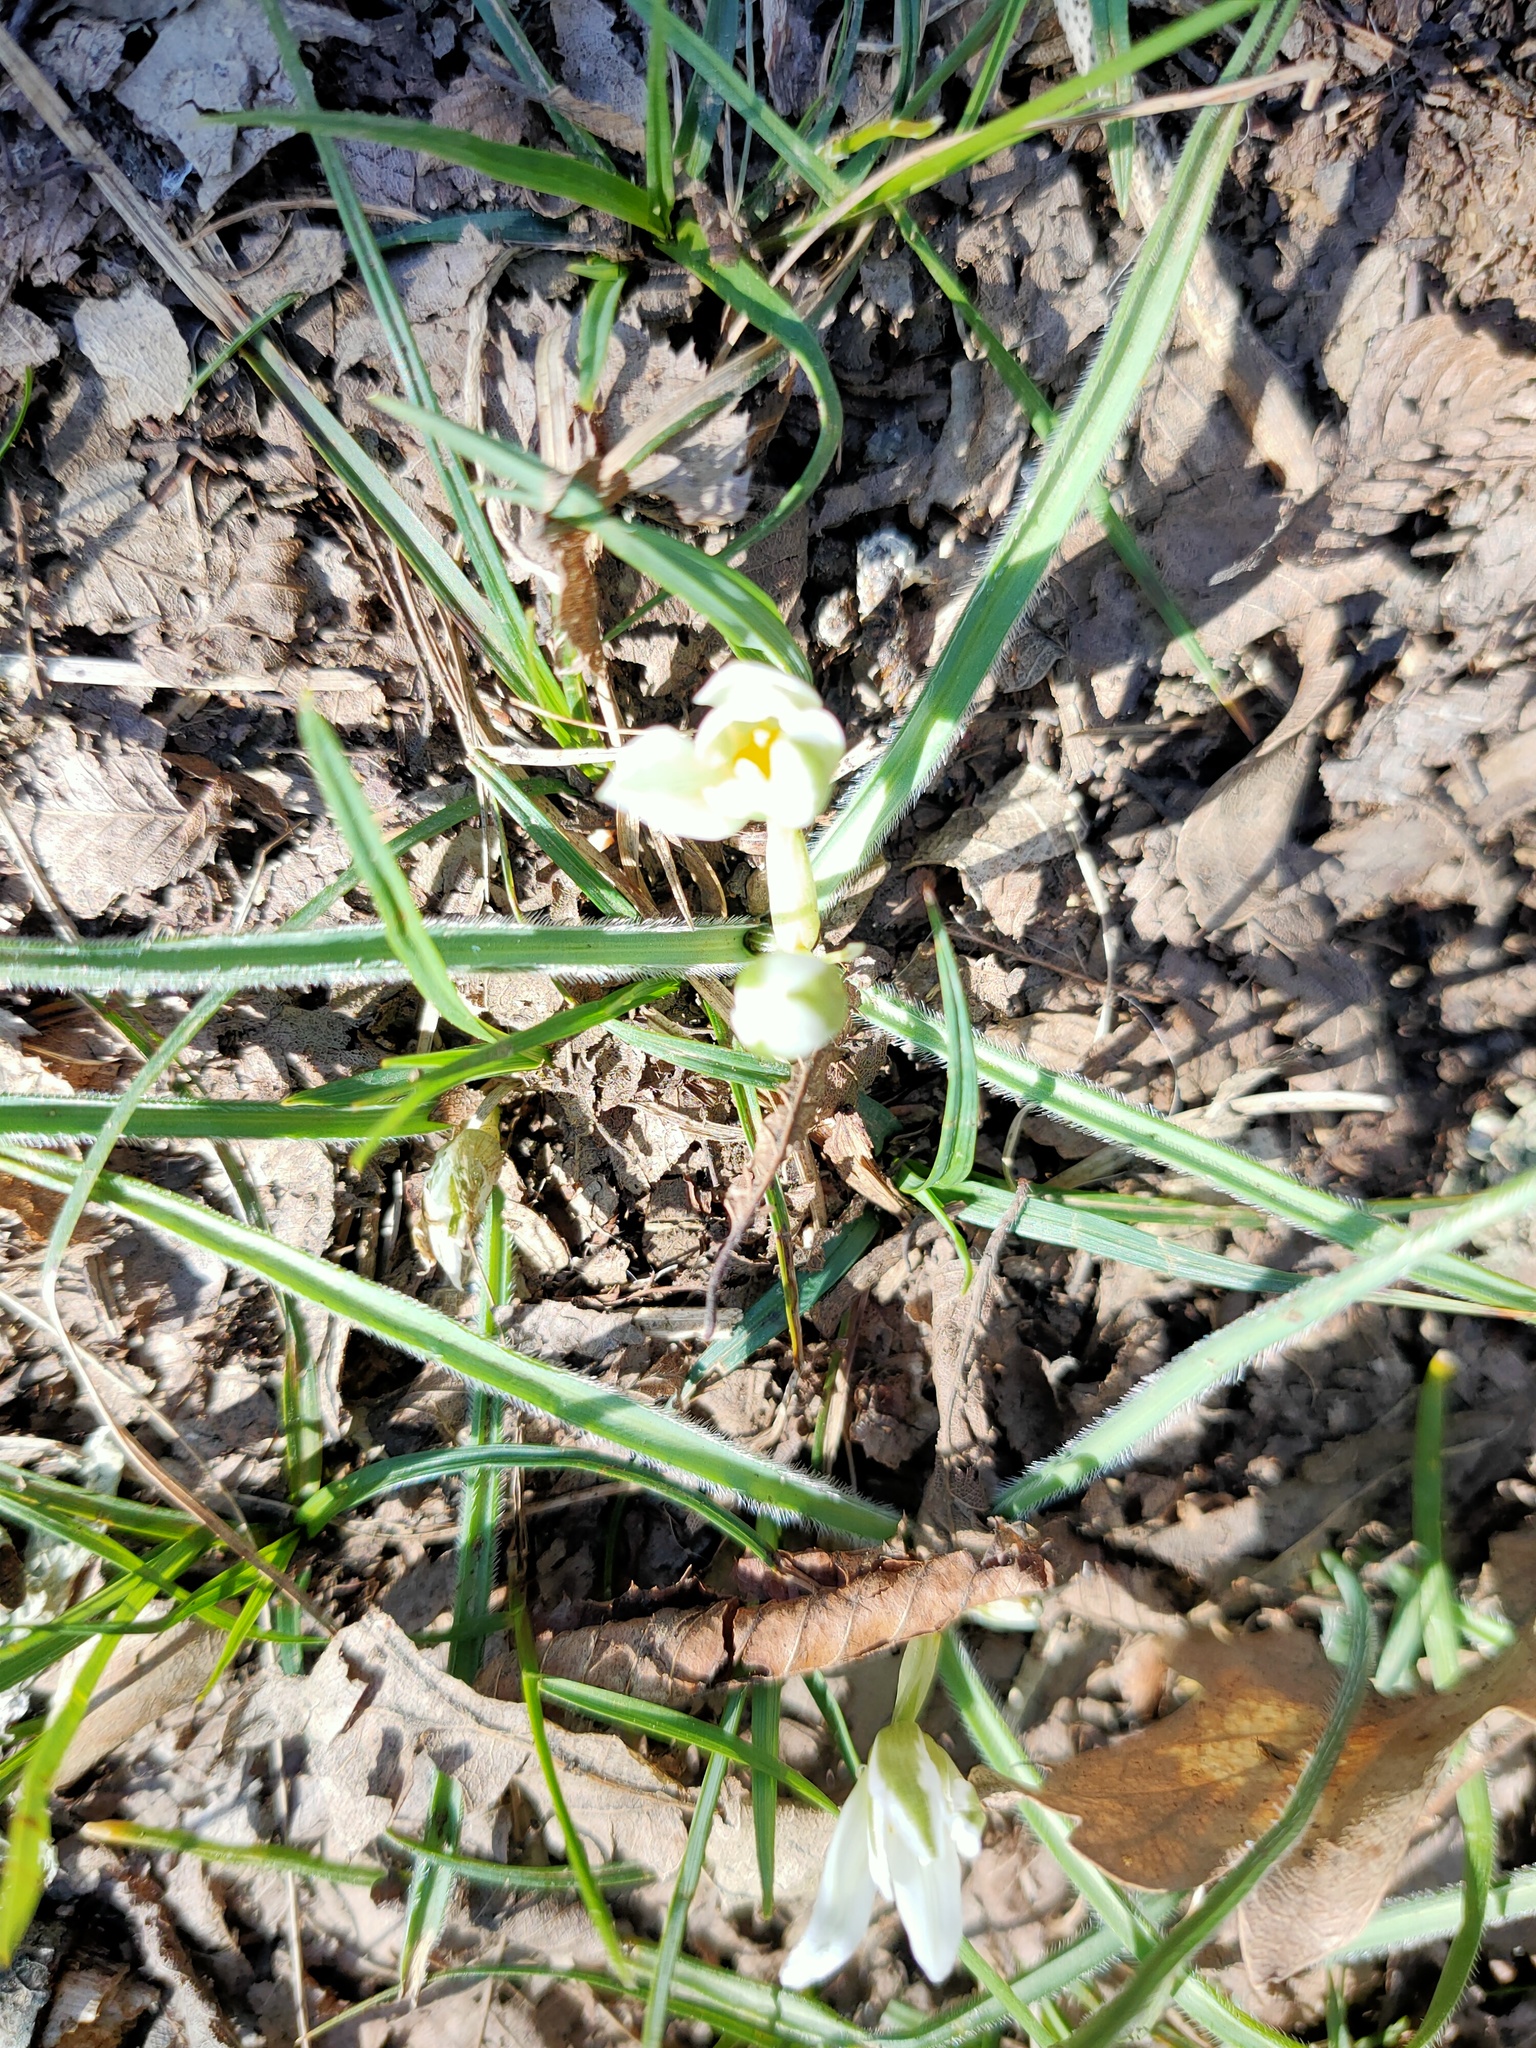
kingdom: Plantae
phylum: Tracheophyta
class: Liliopsida
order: Asparagales
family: Asparagaceae
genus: Ornithogalum
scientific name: Ornithogalum fimbriatum
